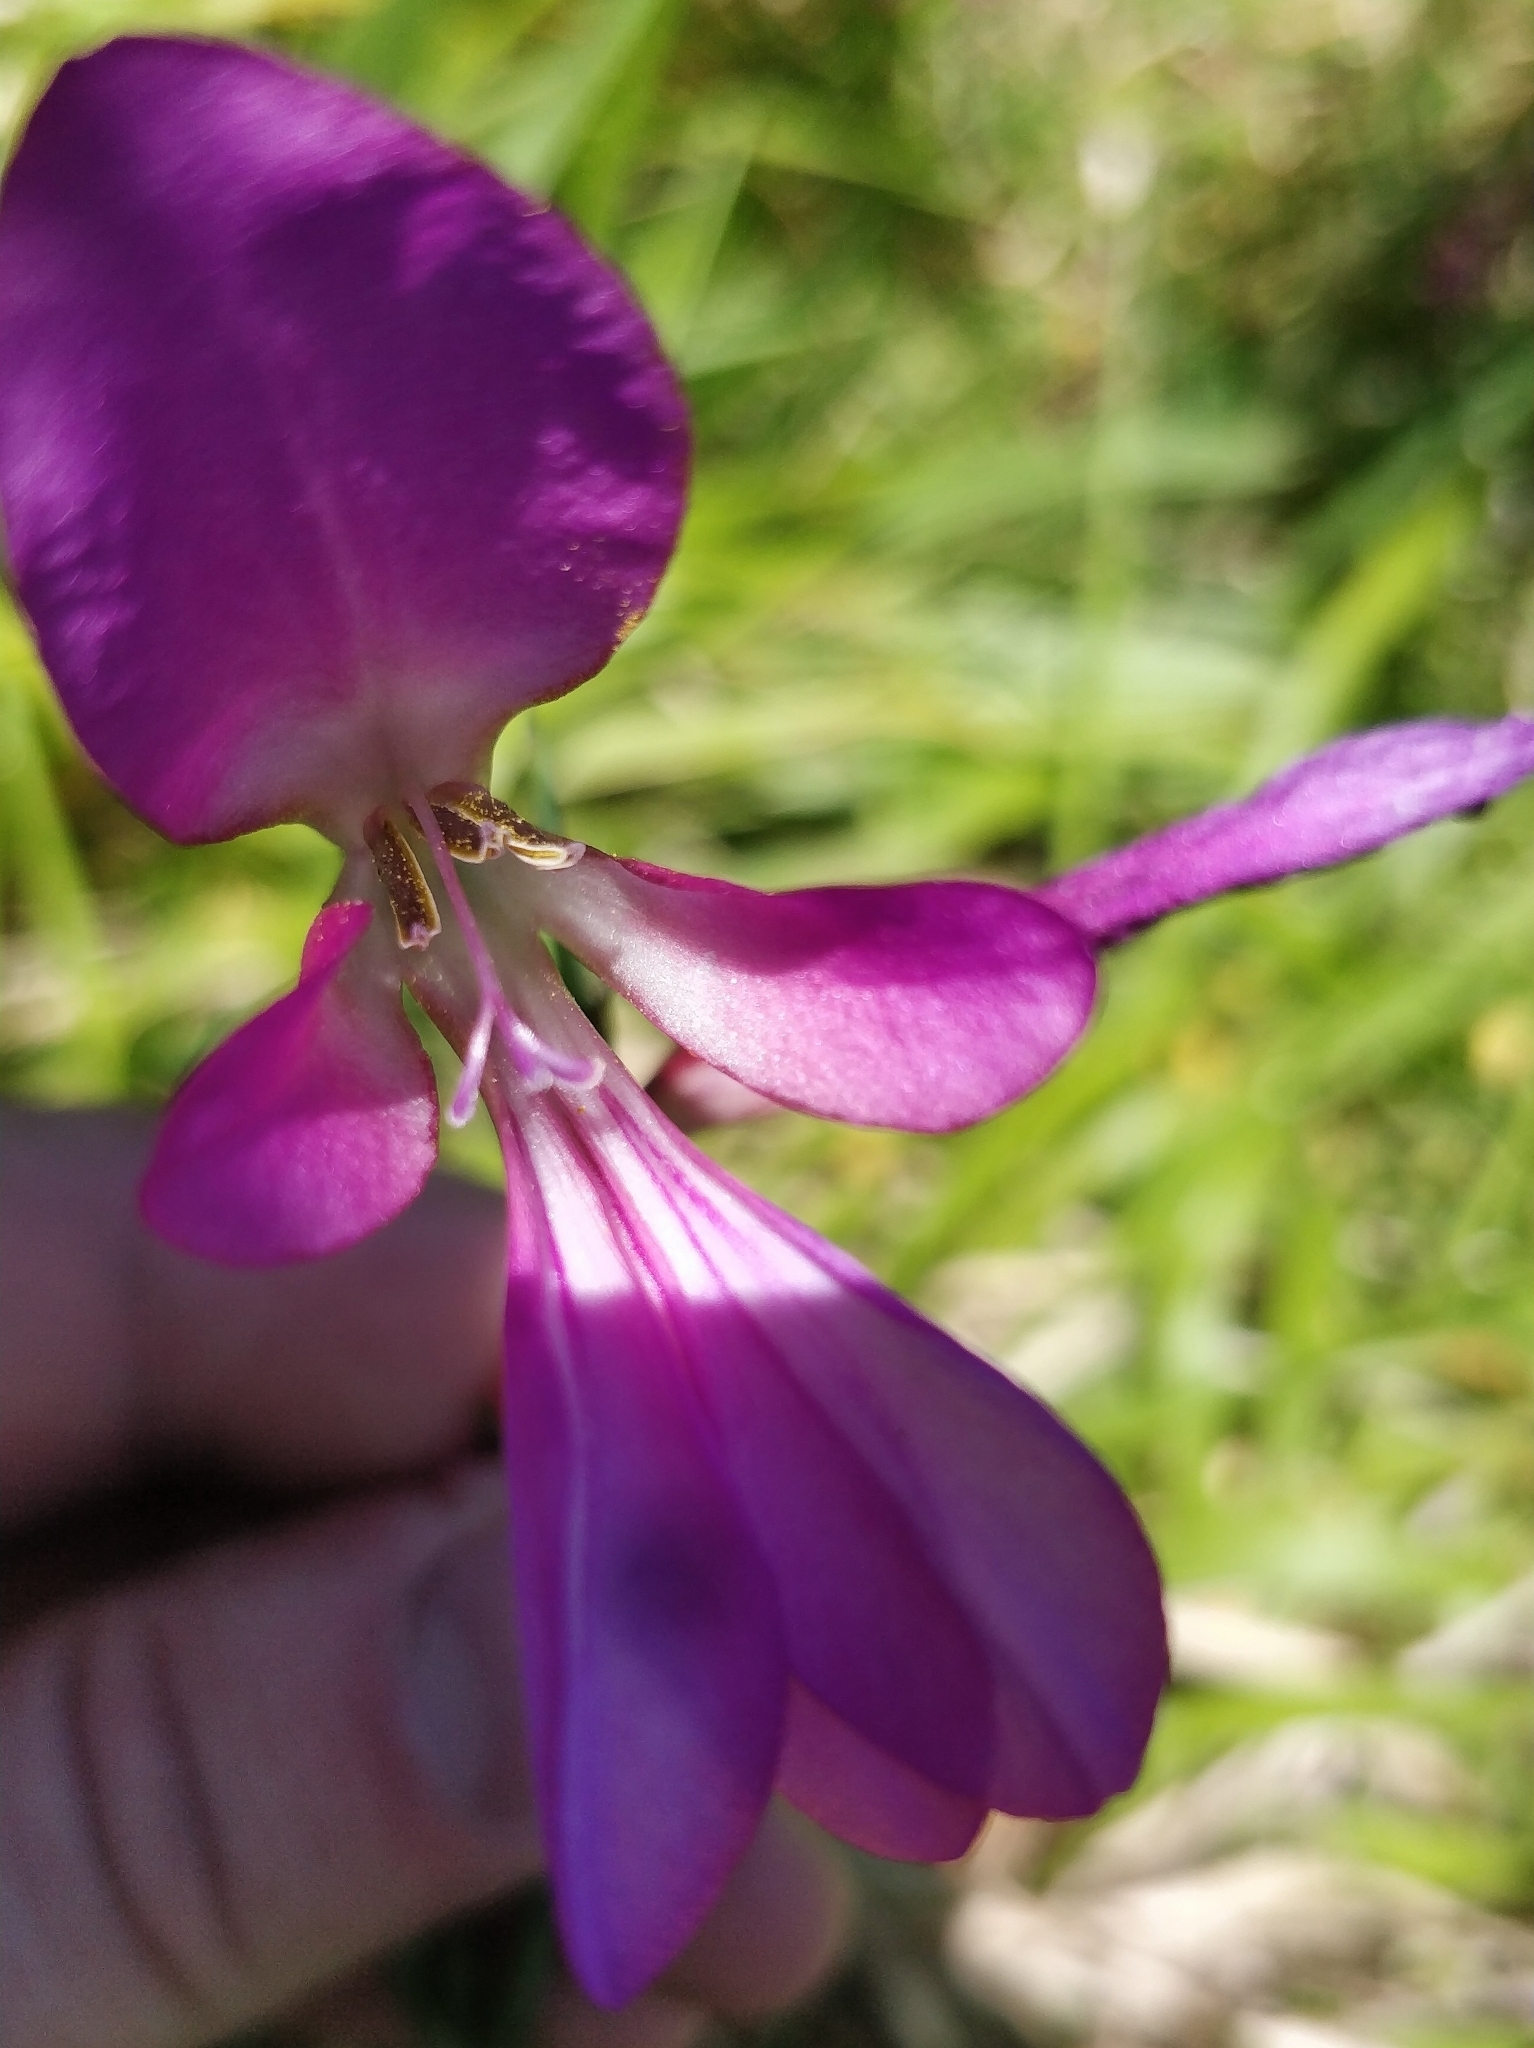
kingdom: Plantae
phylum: Tracheophyta
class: Liliopsida
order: Asparagales
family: Iridaceae
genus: Gladiolus
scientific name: Gladiolus italicus
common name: Field gladiolus
